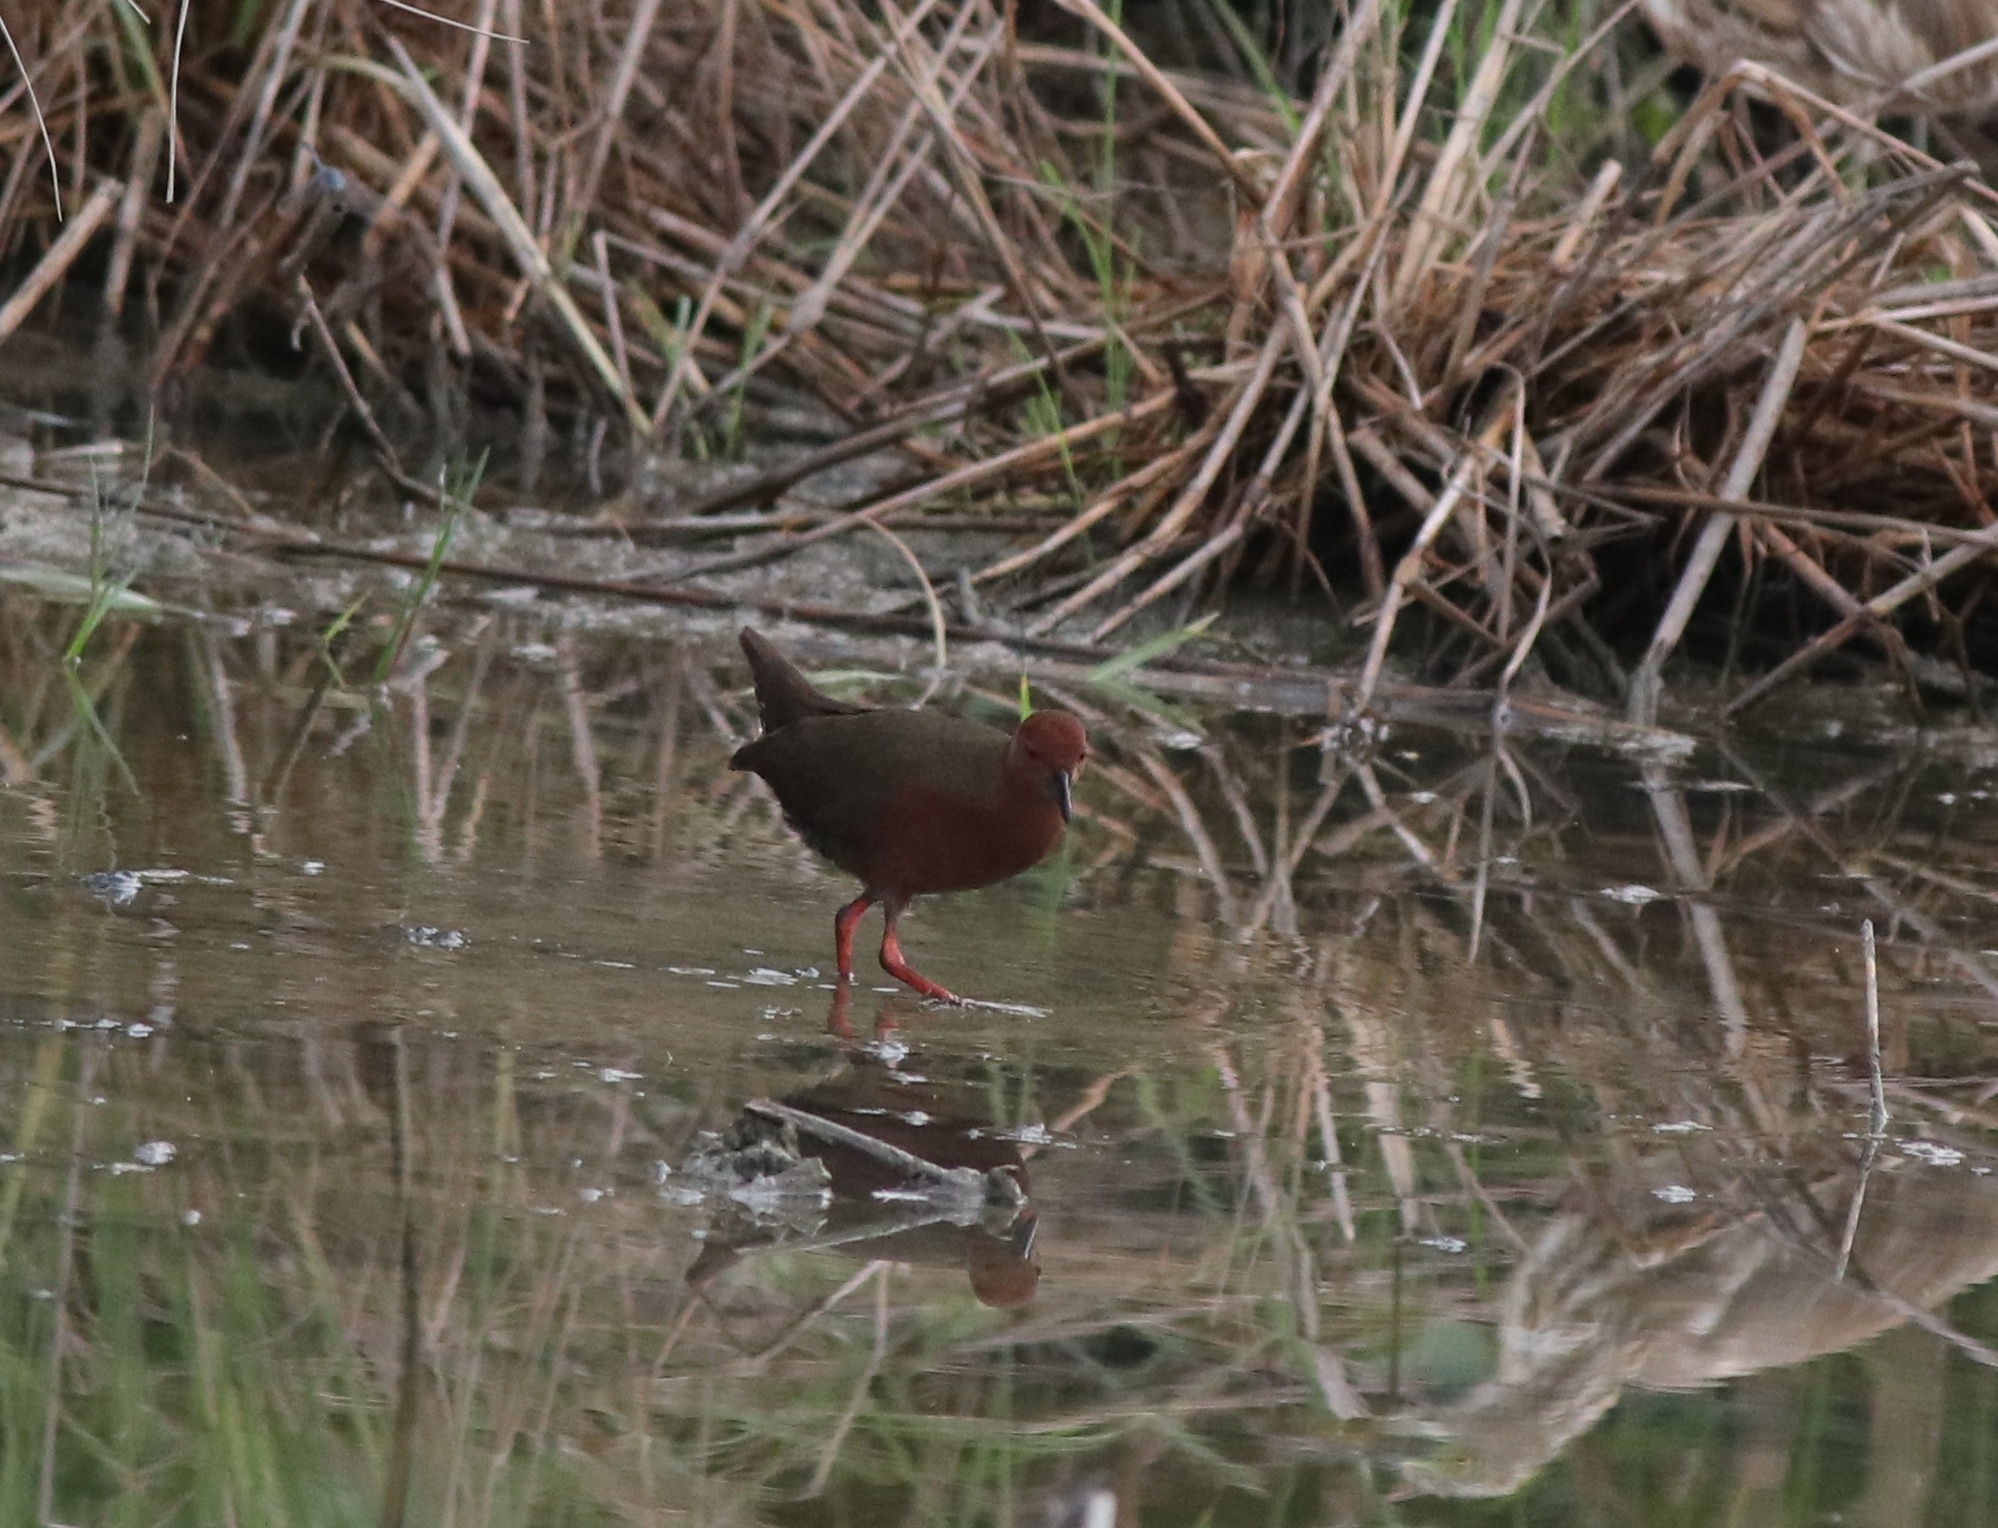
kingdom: Animalia
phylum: Chordata
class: Aves
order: Gruiformes
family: Rallidae
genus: Porzana
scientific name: Porzana fusca
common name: Ruddy-breasted crake
